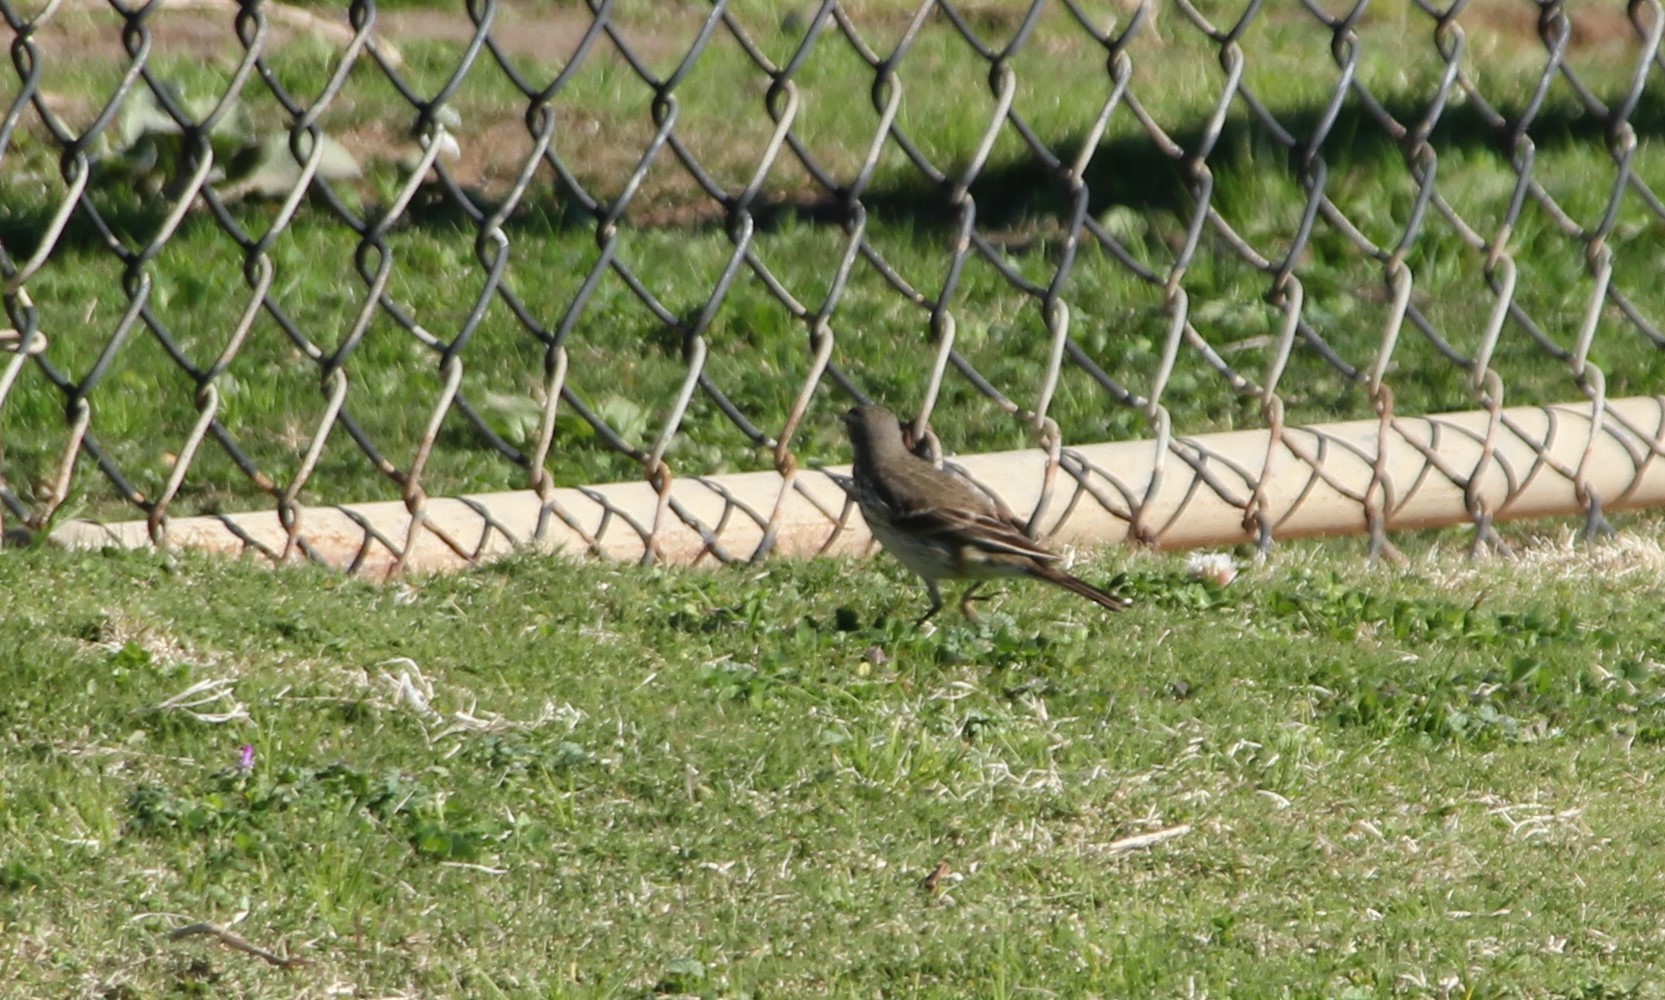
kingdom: Animalia
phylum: Chordata
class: Aves
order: Passeriformes
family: Motacillidae
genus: Anthus
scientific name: Anthus rubescens
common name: Buff-bellied pipit
